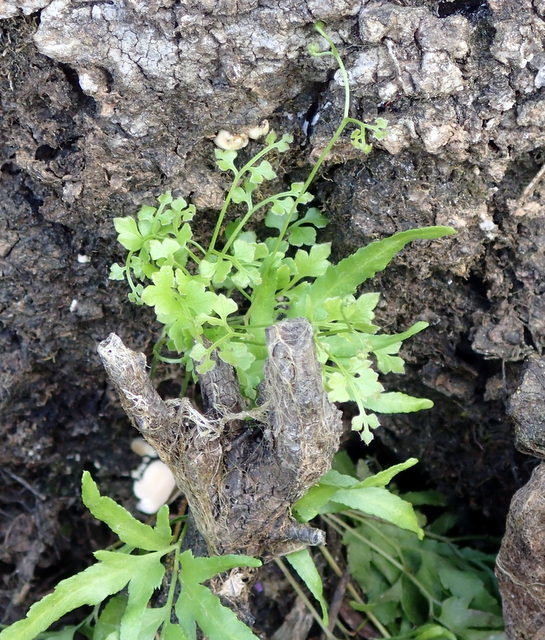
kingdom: Plantae
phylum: Tracheophyta
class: Polypodiopsida
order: Schizaeales
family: Lygodiaceae
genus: Lygodium
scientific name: Lygodium japonicum
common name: Japanese climbing fern
